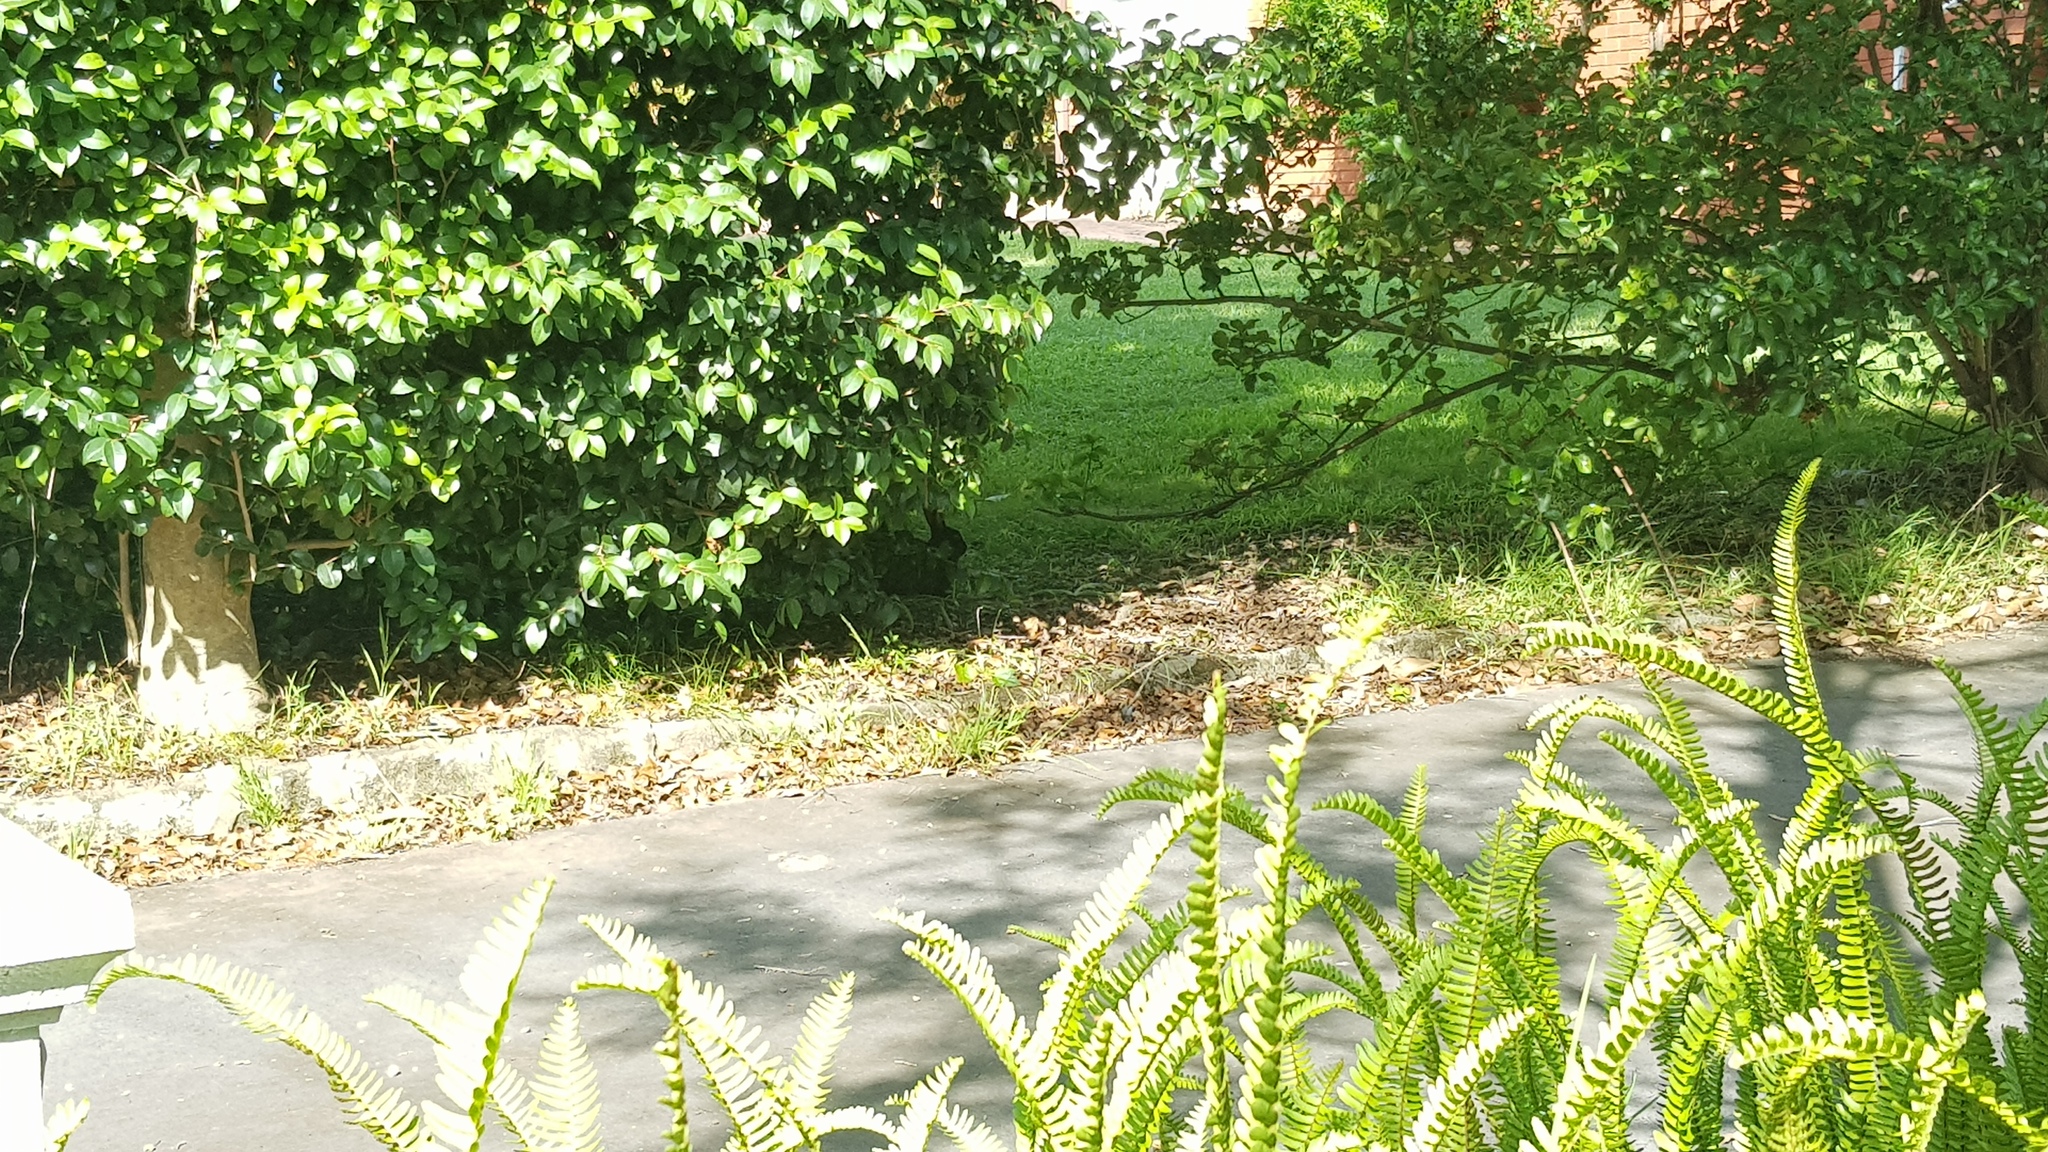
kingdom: Animalia
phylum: Chordata
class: Mammalia
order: Lagomorpha
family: Leporidae
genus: Oryctolagus
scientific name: Oryctolagus cuniculus
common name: European rabbit
